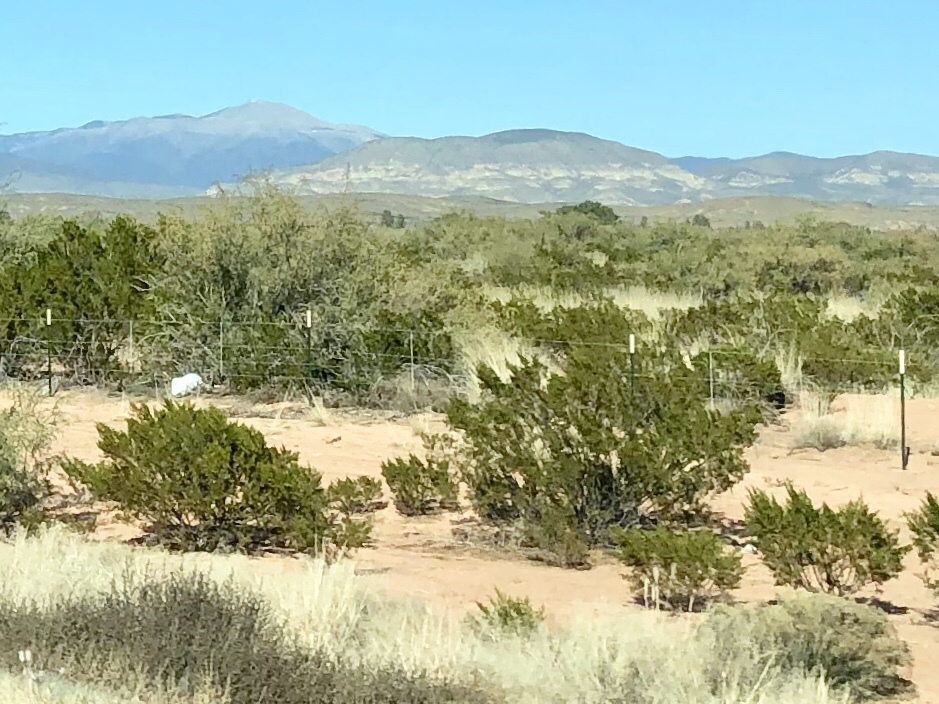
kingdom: Plantae
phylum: Tracheophyta
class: Magnoliopsida
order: Zygophyllales
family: Zygophyllaceae
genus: Larrea
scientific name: Larrea tridentata
